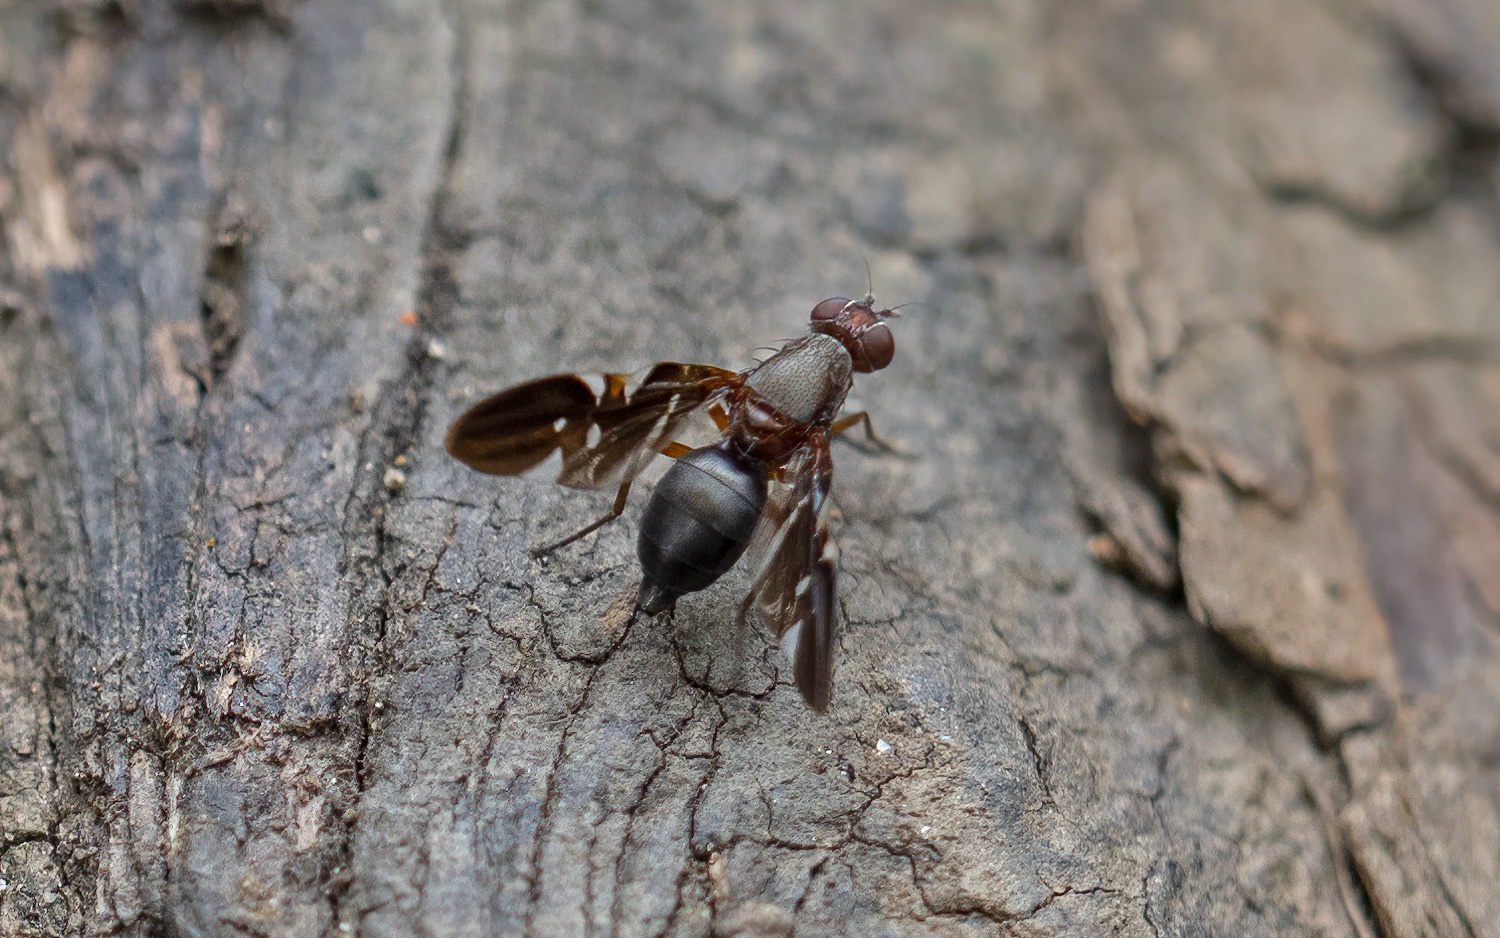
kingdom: Animalia
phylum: Arthropoda
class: Insecta
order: Diptera
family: Ulidiidae
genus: Delphinia
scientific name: Delphinia picta
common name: Common picture-winged fly
